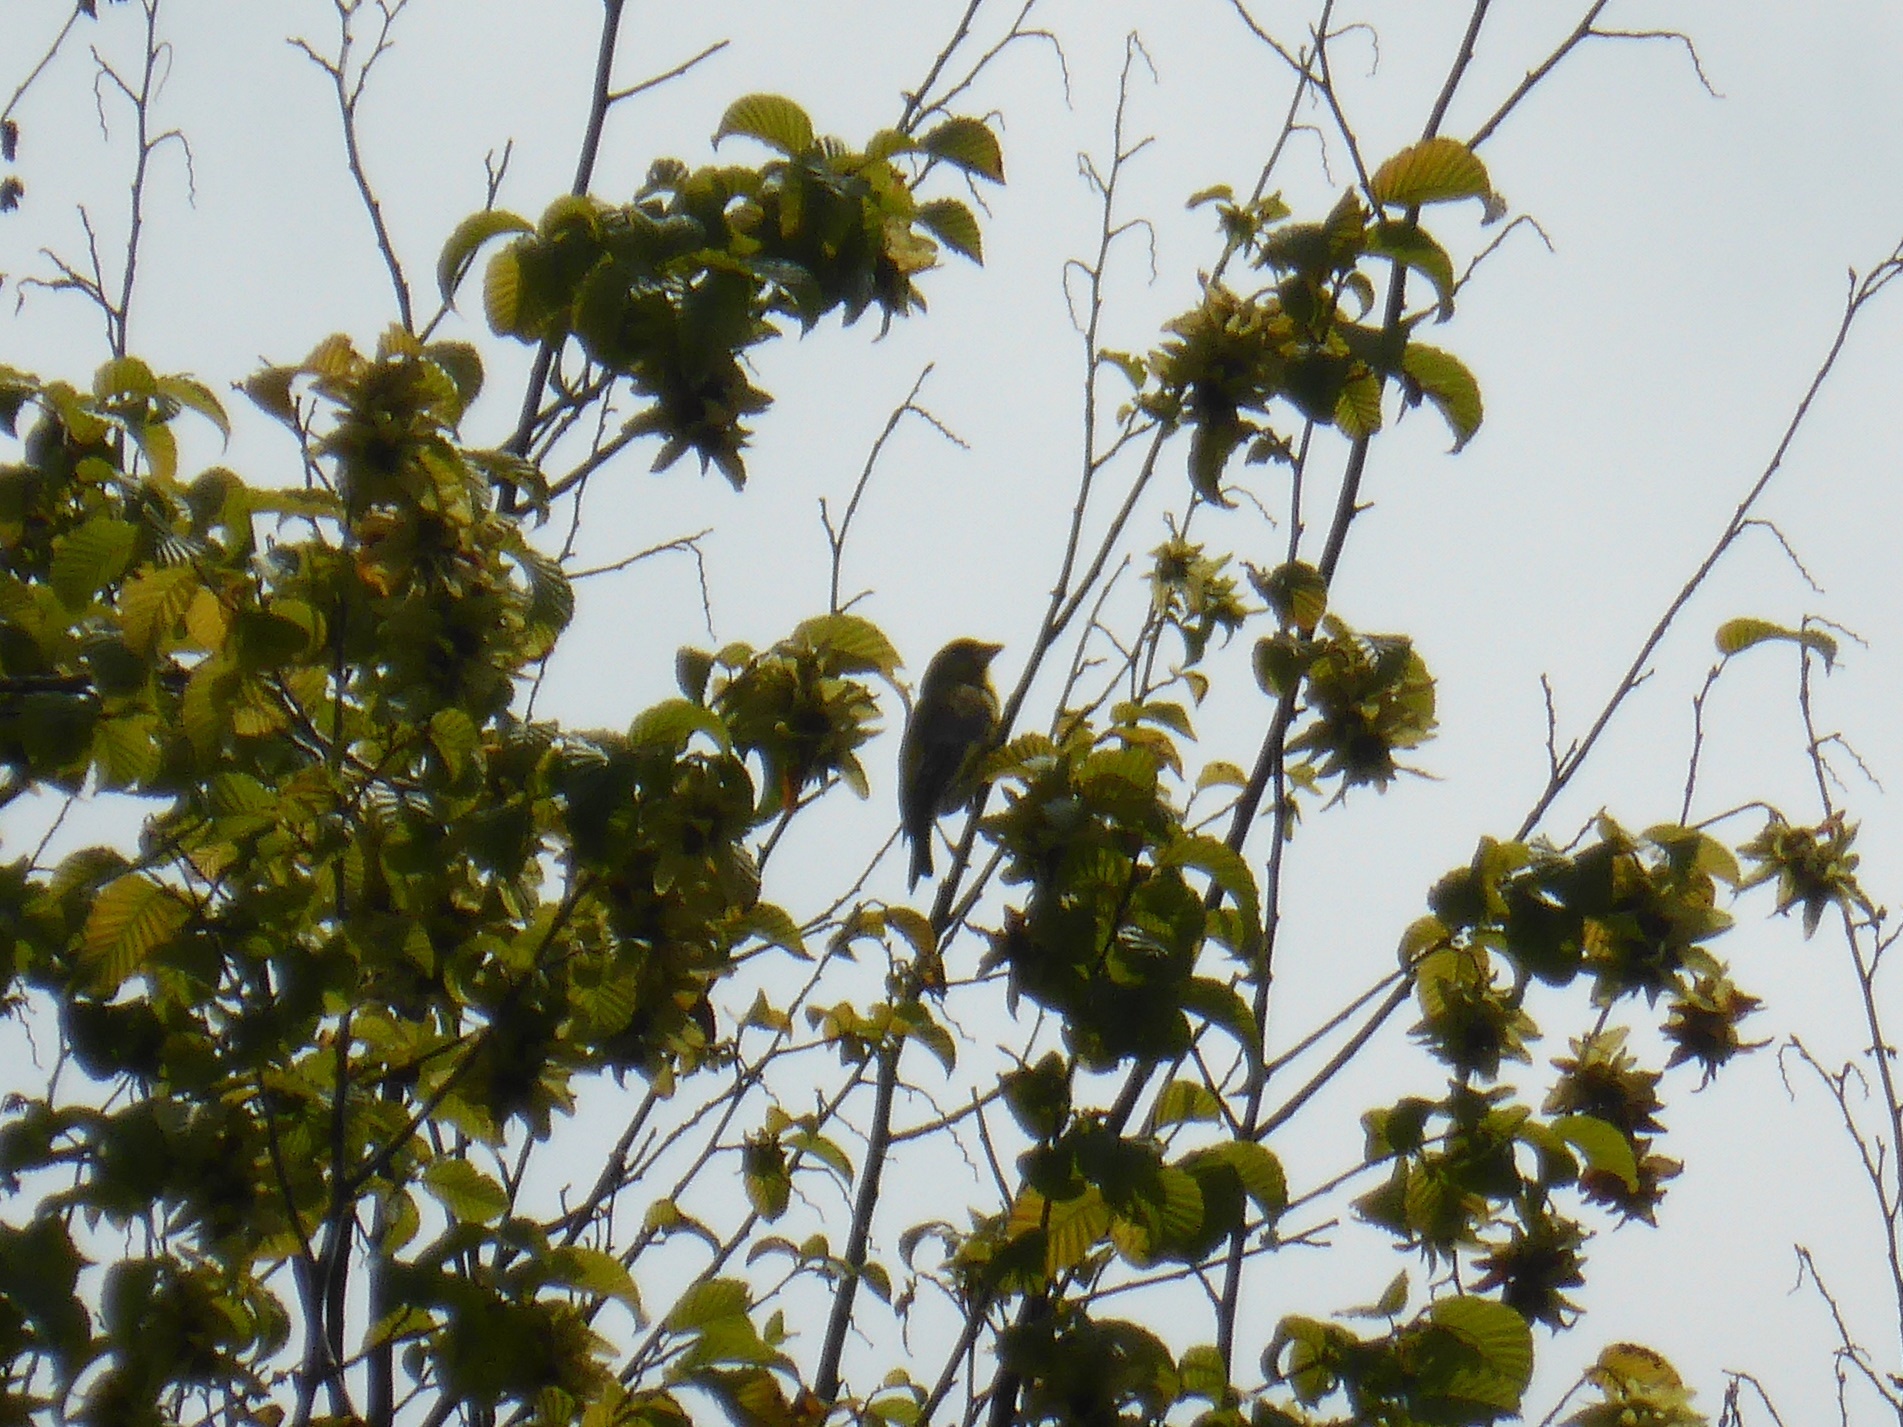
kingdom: Plantae
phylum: Tracheophyta
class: Liliopsida
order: Poales
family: Poaceae
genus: Chloris
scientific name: Chloris chloris
